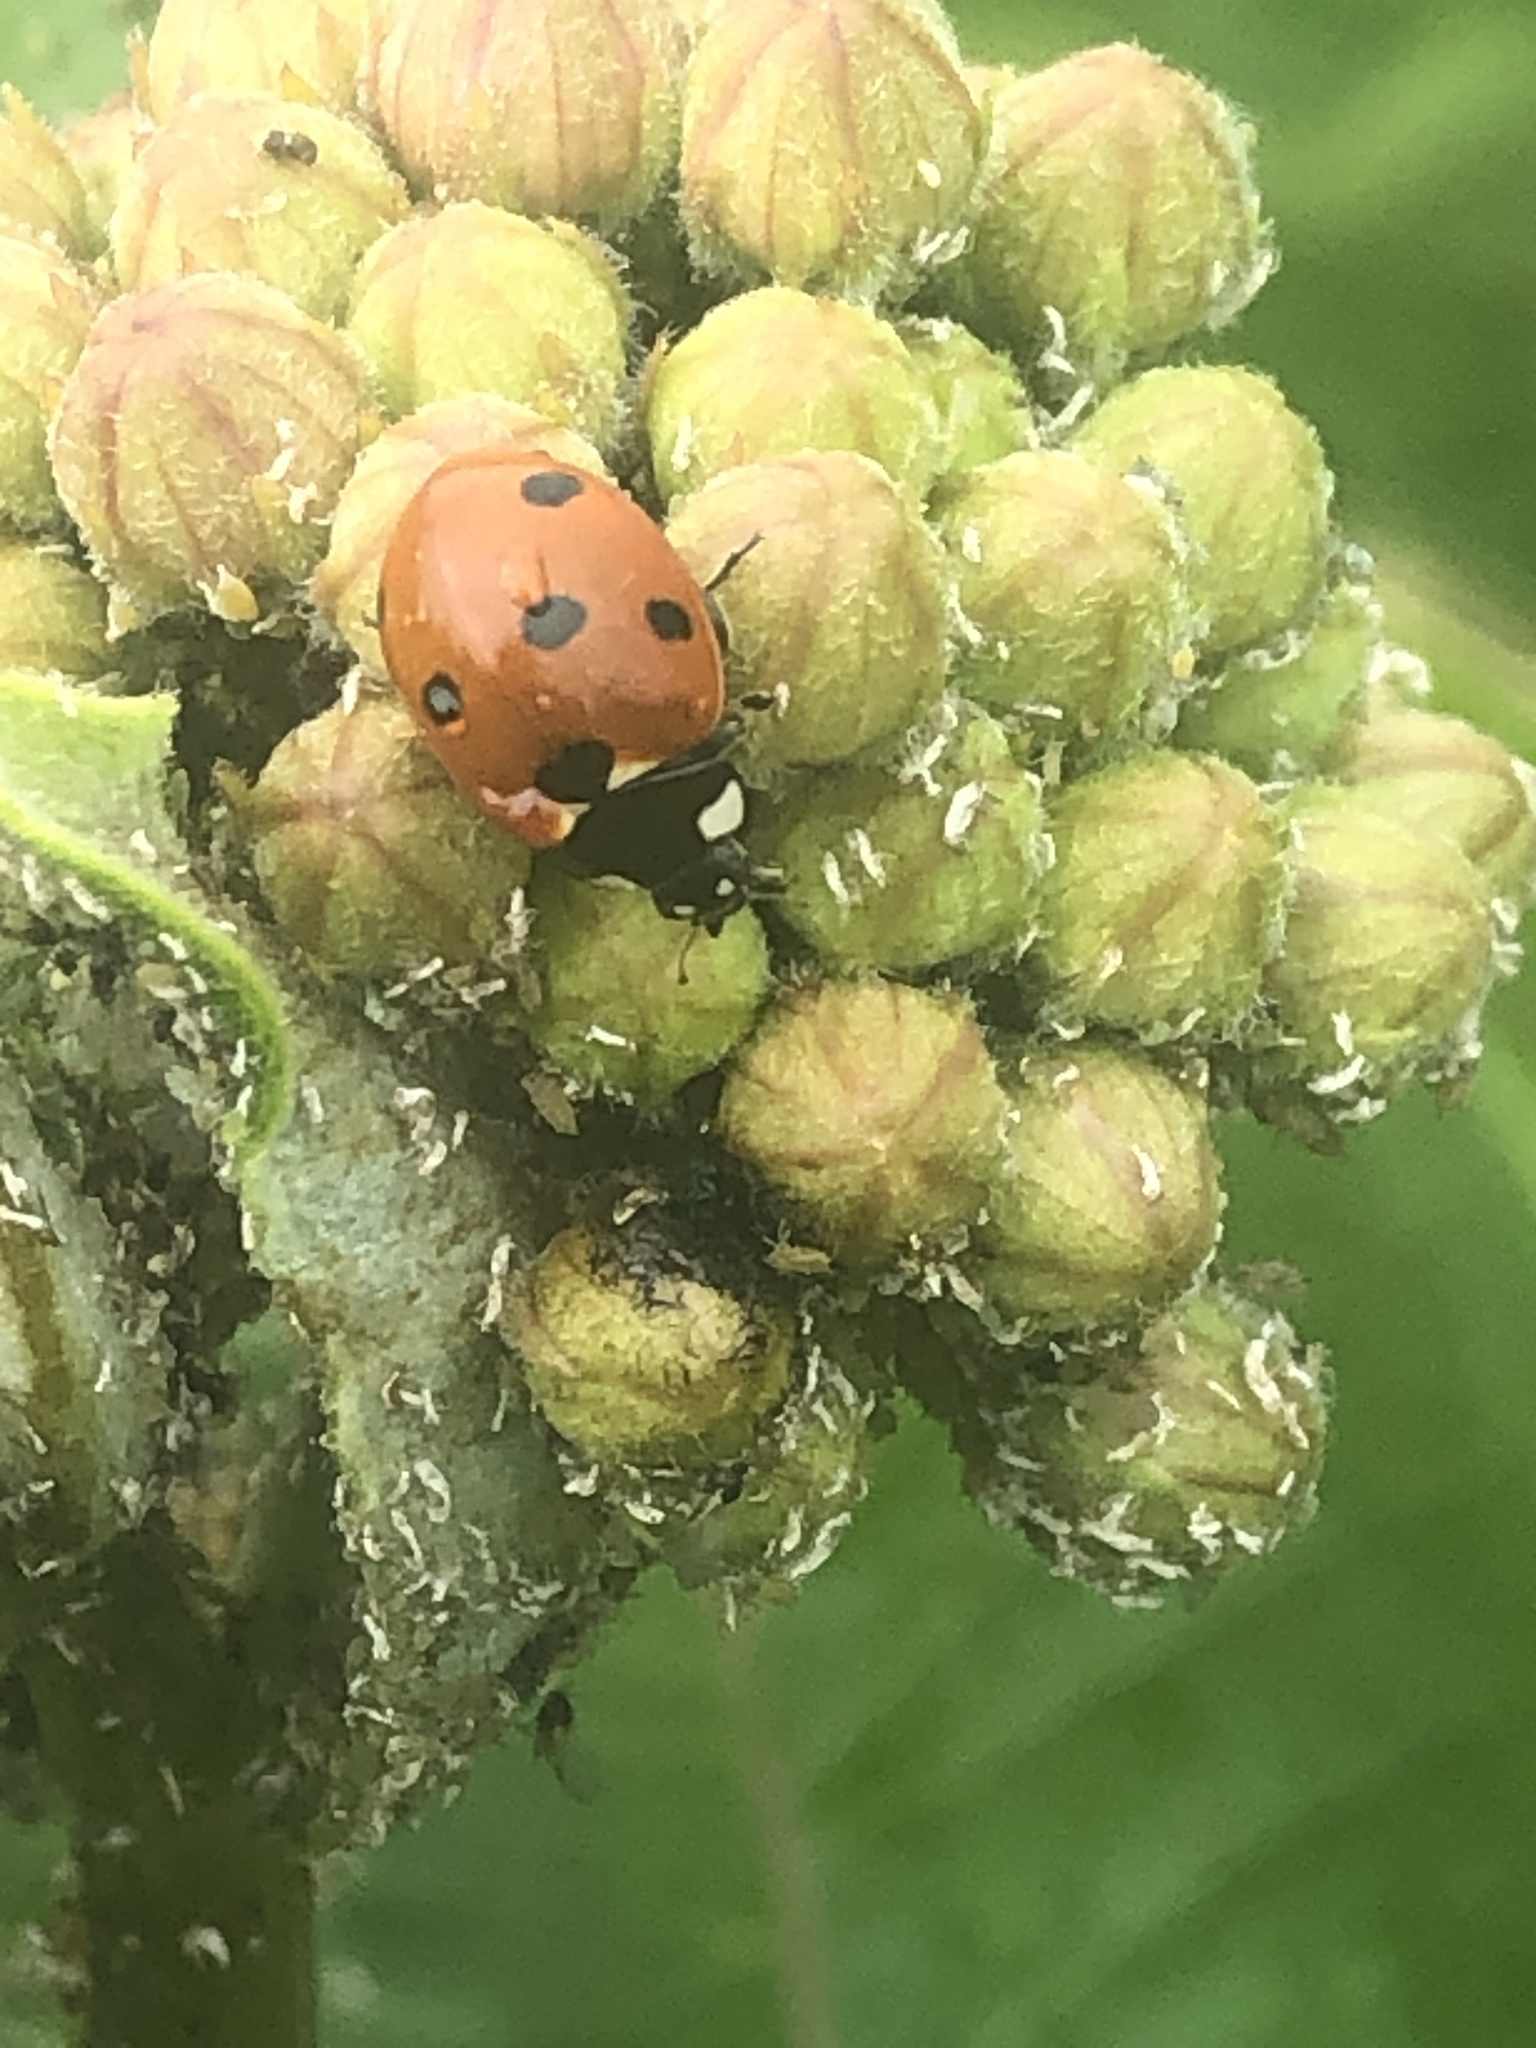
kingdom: Animalia
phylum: Arthropoda
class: Insecta
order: Coleoptera
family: Coccinellidae
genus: Coccinella
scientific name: Coccinella septempunctata
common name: Sevenspotted lady beetle
